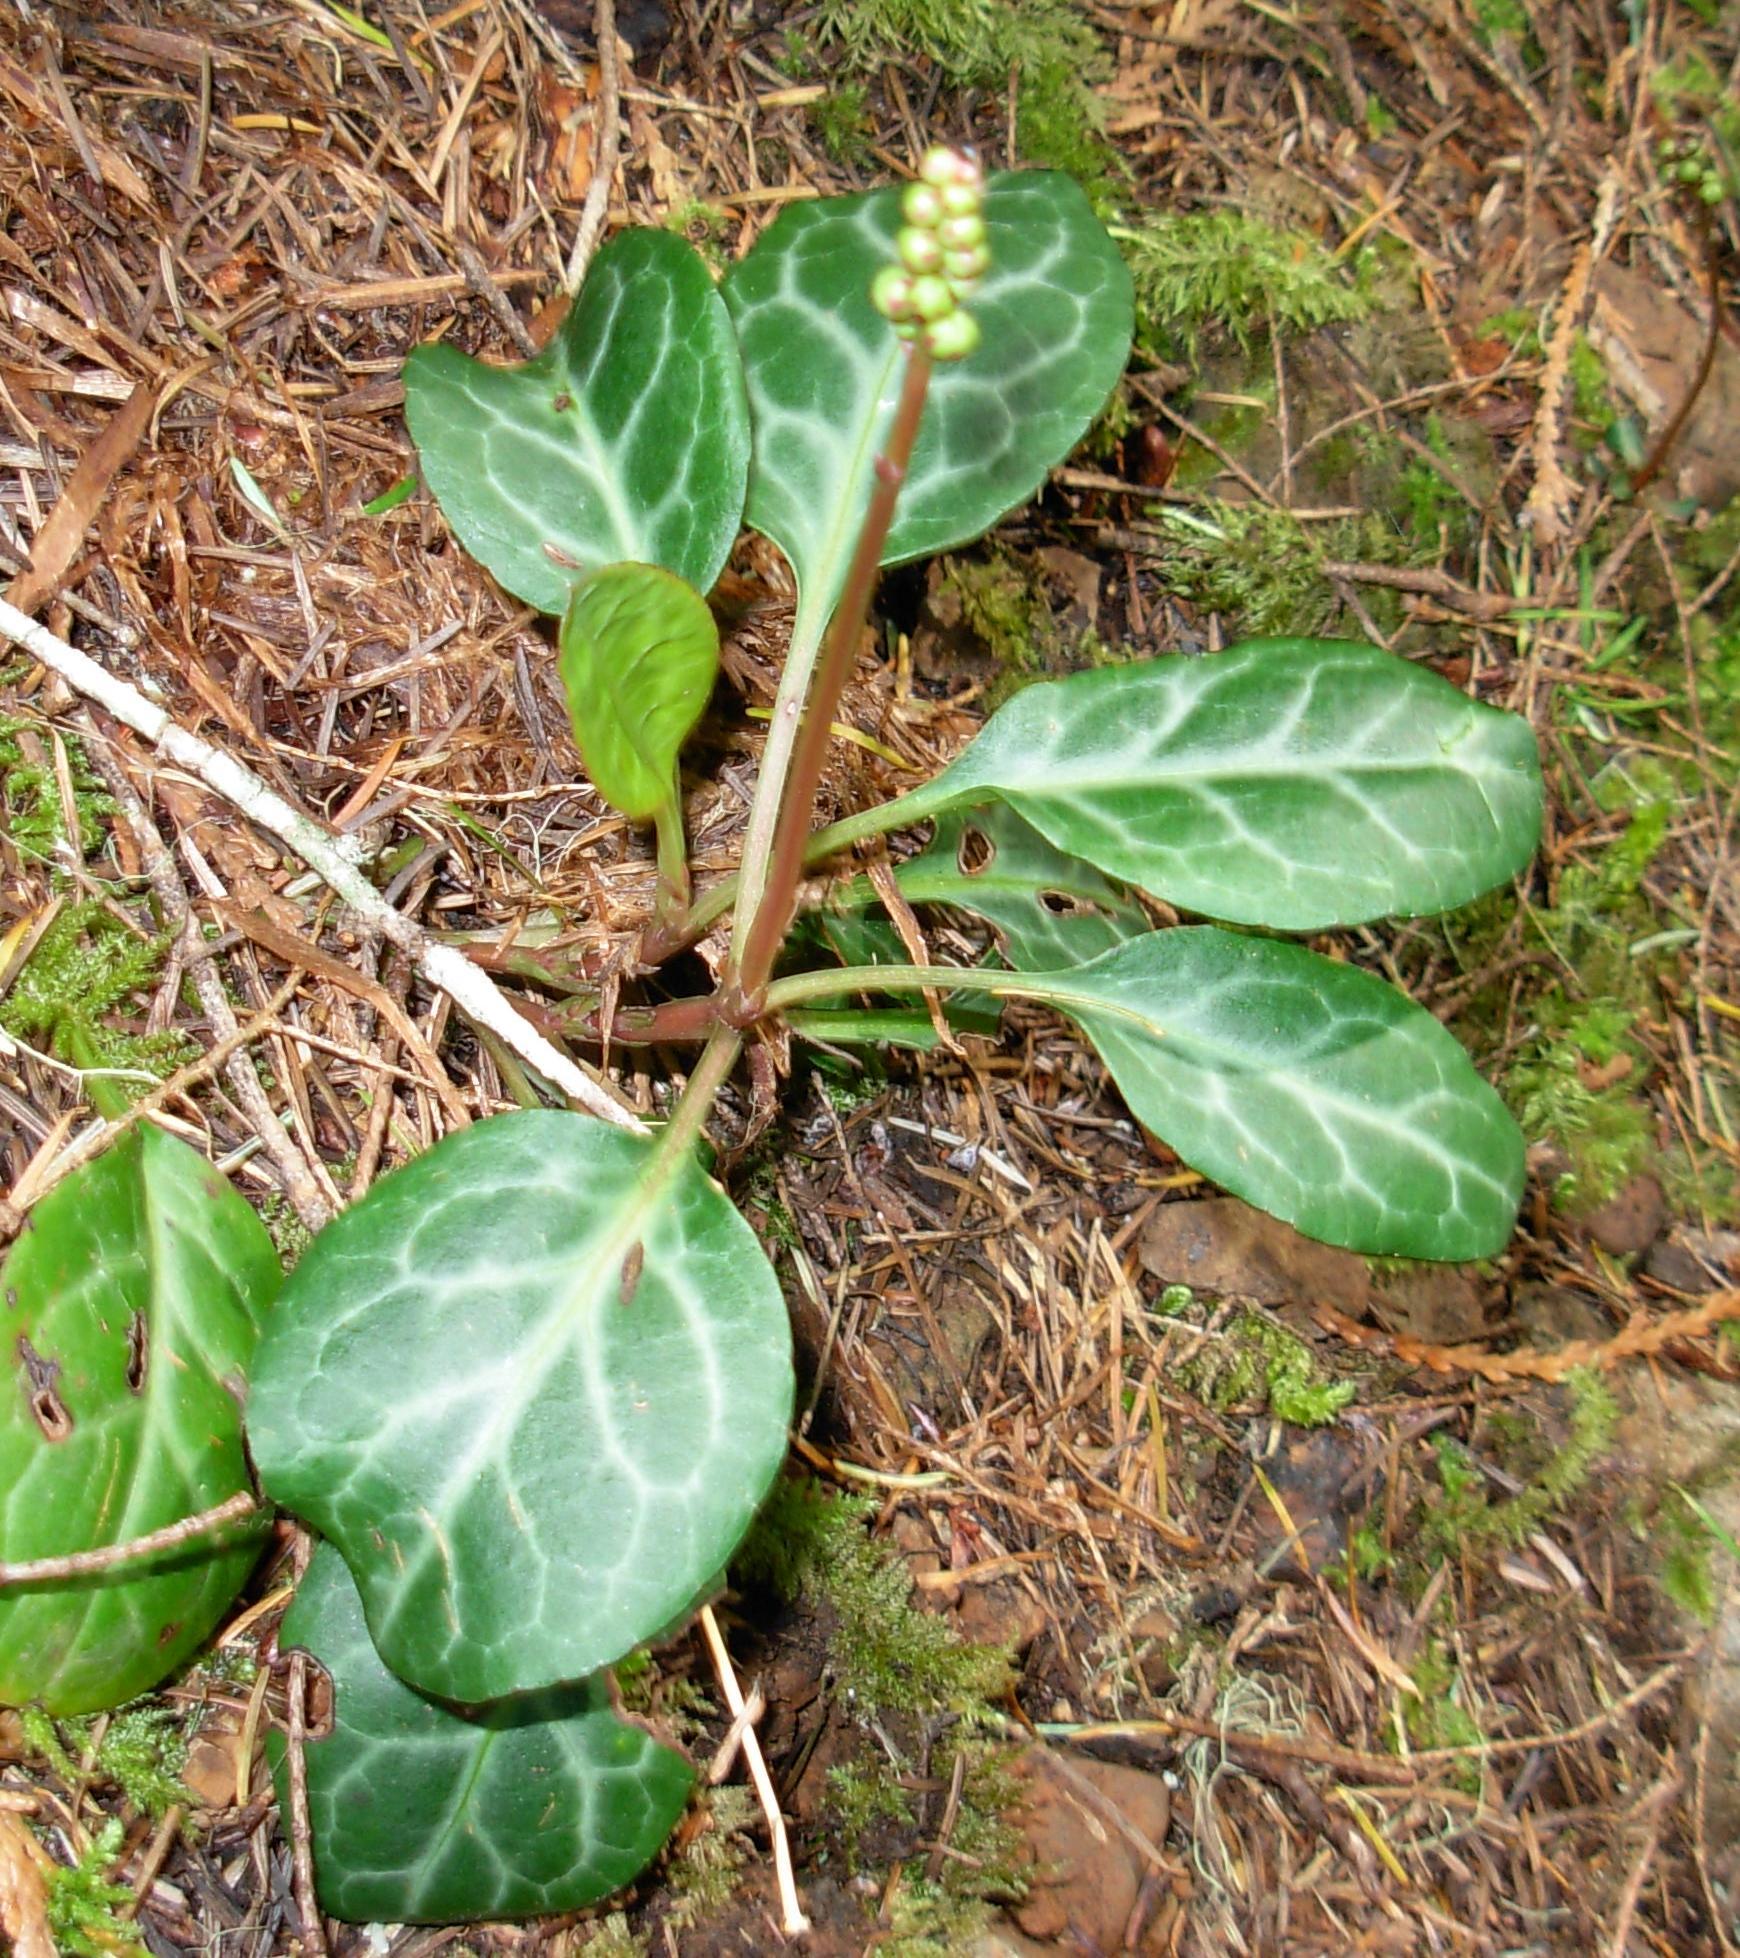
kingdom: Plantae
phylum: Tracheophyta
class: Magnoliopsida
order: Ericales
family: Ericaceae
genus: Pyrola
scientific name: Pyrola picta
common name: White-vein wintergreen
